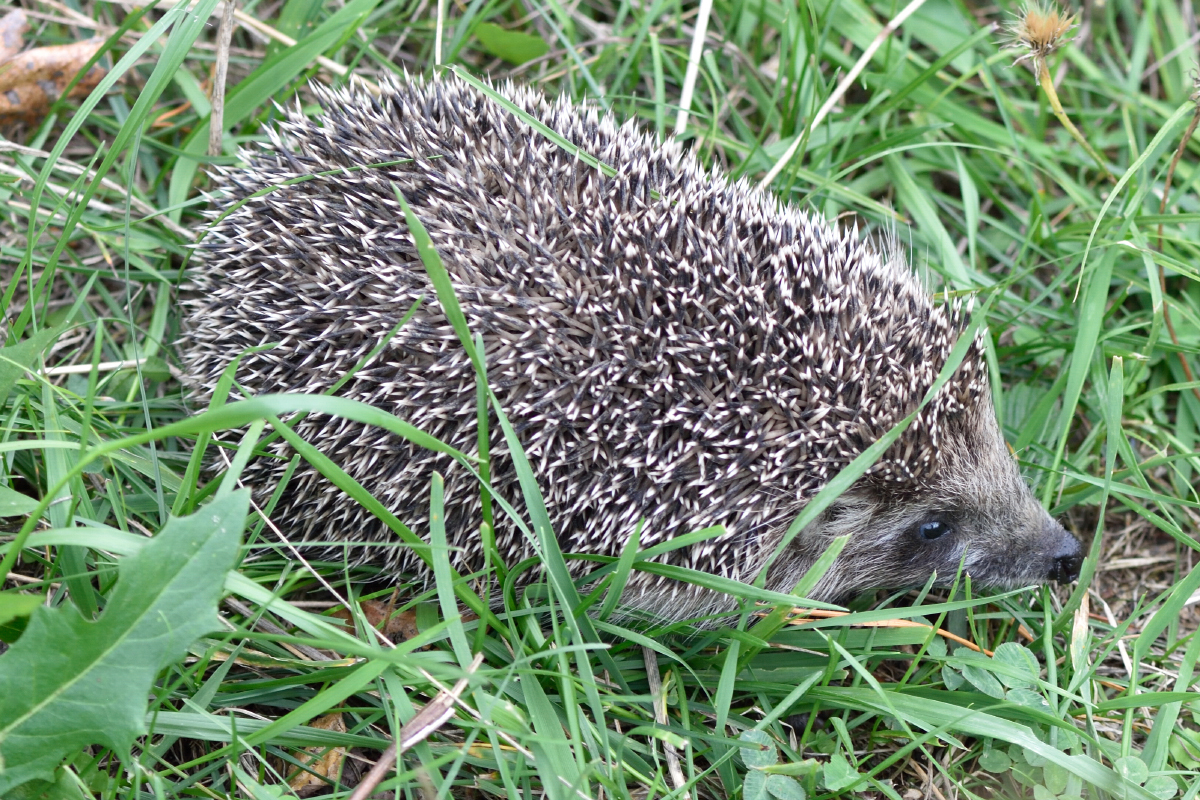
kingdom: Animalia
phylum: Chordata
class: Mammalia
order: Erinaceomorpha
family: Erinaceidae
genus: Erinaceus
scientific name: Erinaceus europaeus
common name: West european hedgehog
